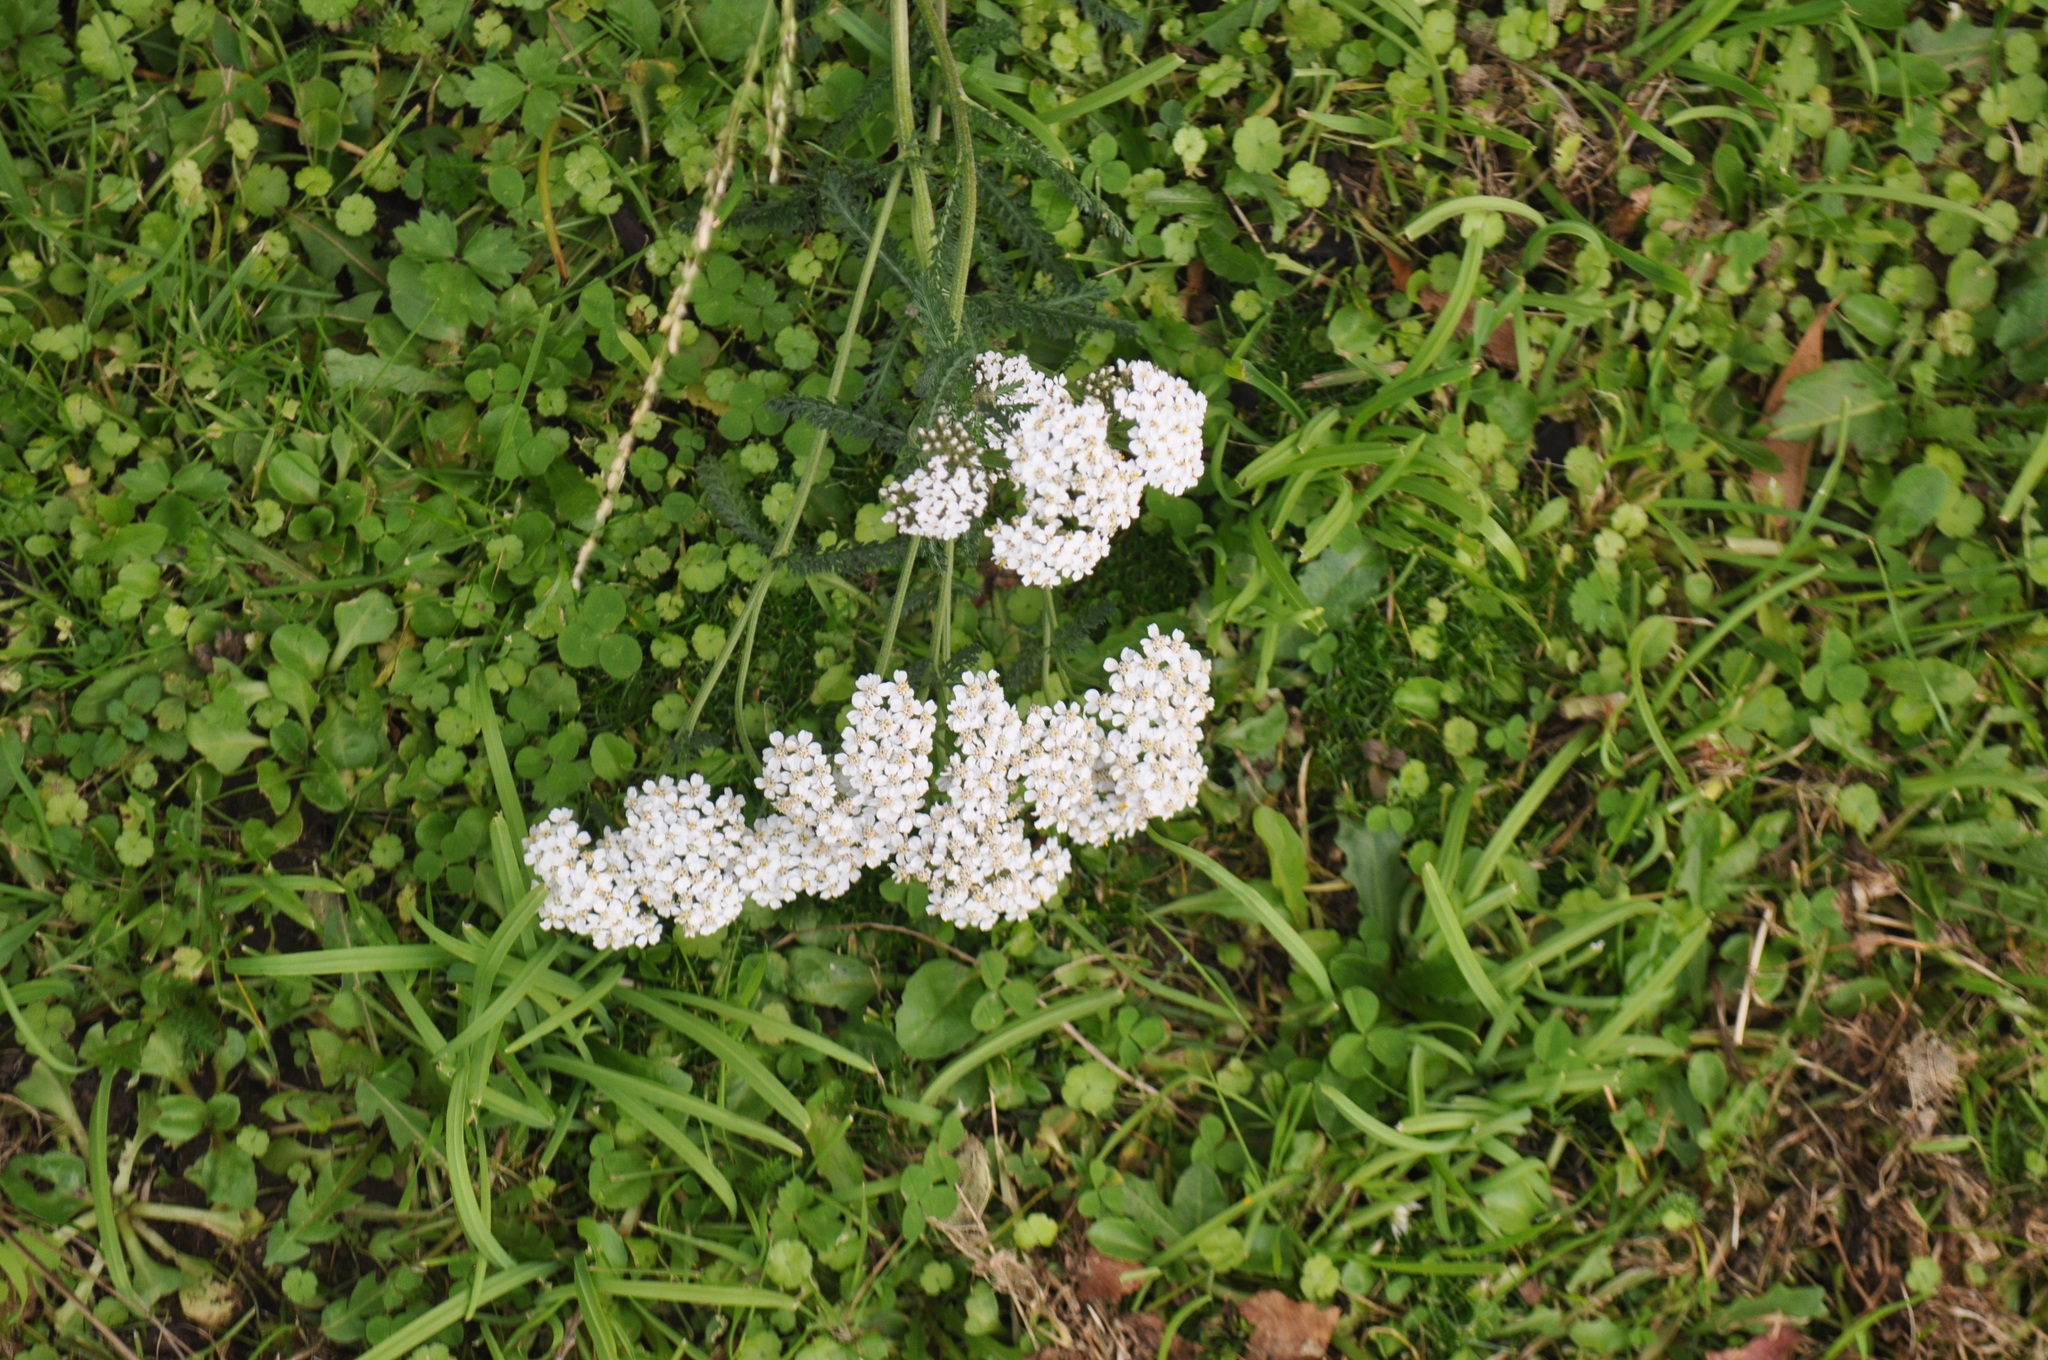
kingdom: Plantae
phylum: Tracheophyta
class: Magnoliopsida
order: Asterales
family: Asteraceae
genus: Achillea
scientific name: Achillea millefolium
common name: Yarrow
